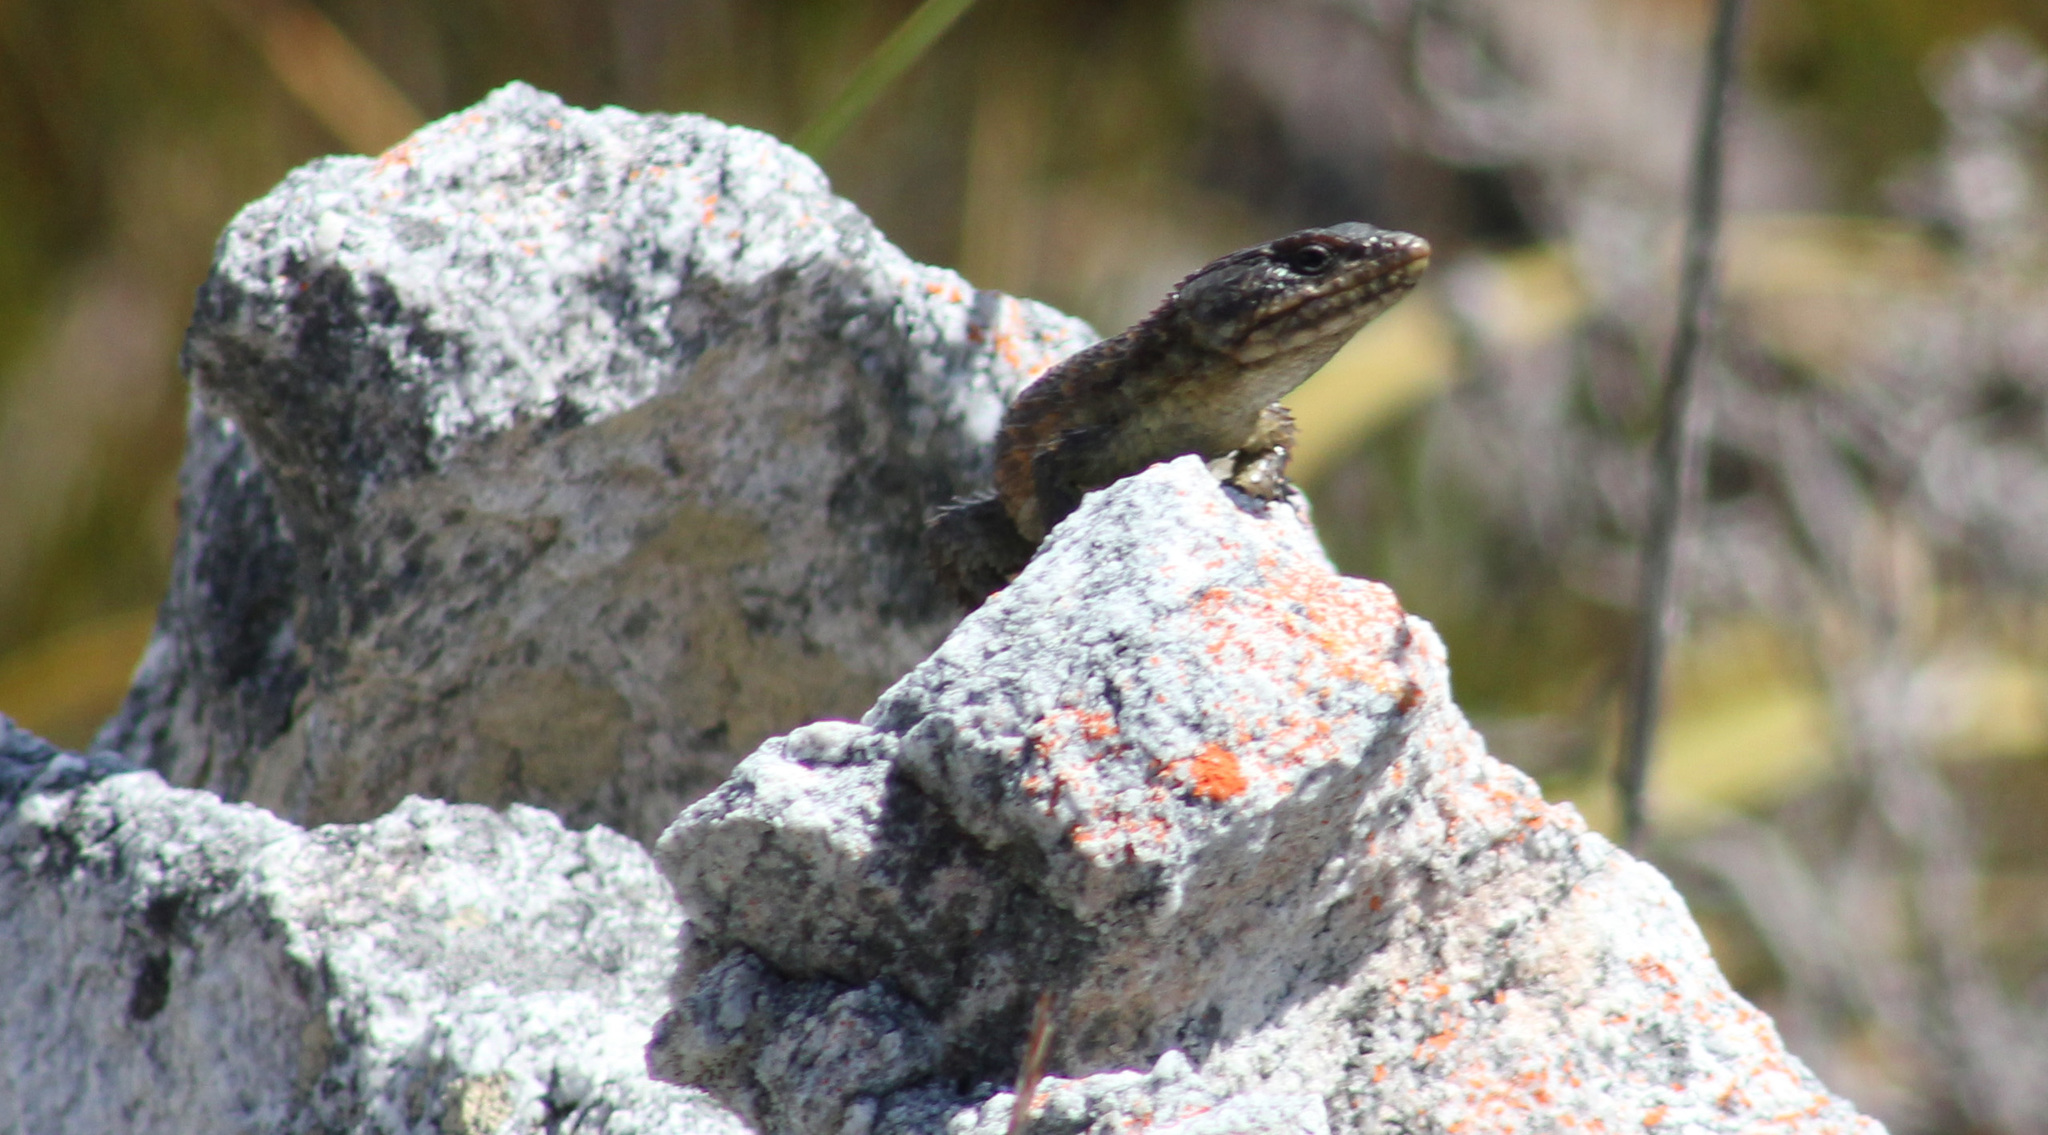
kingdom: Animalia
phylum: Chordata
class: Squamata
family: Cordylidae
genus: Cordylus
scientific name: Cordylus cordylus
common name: Cape girdled lizard
